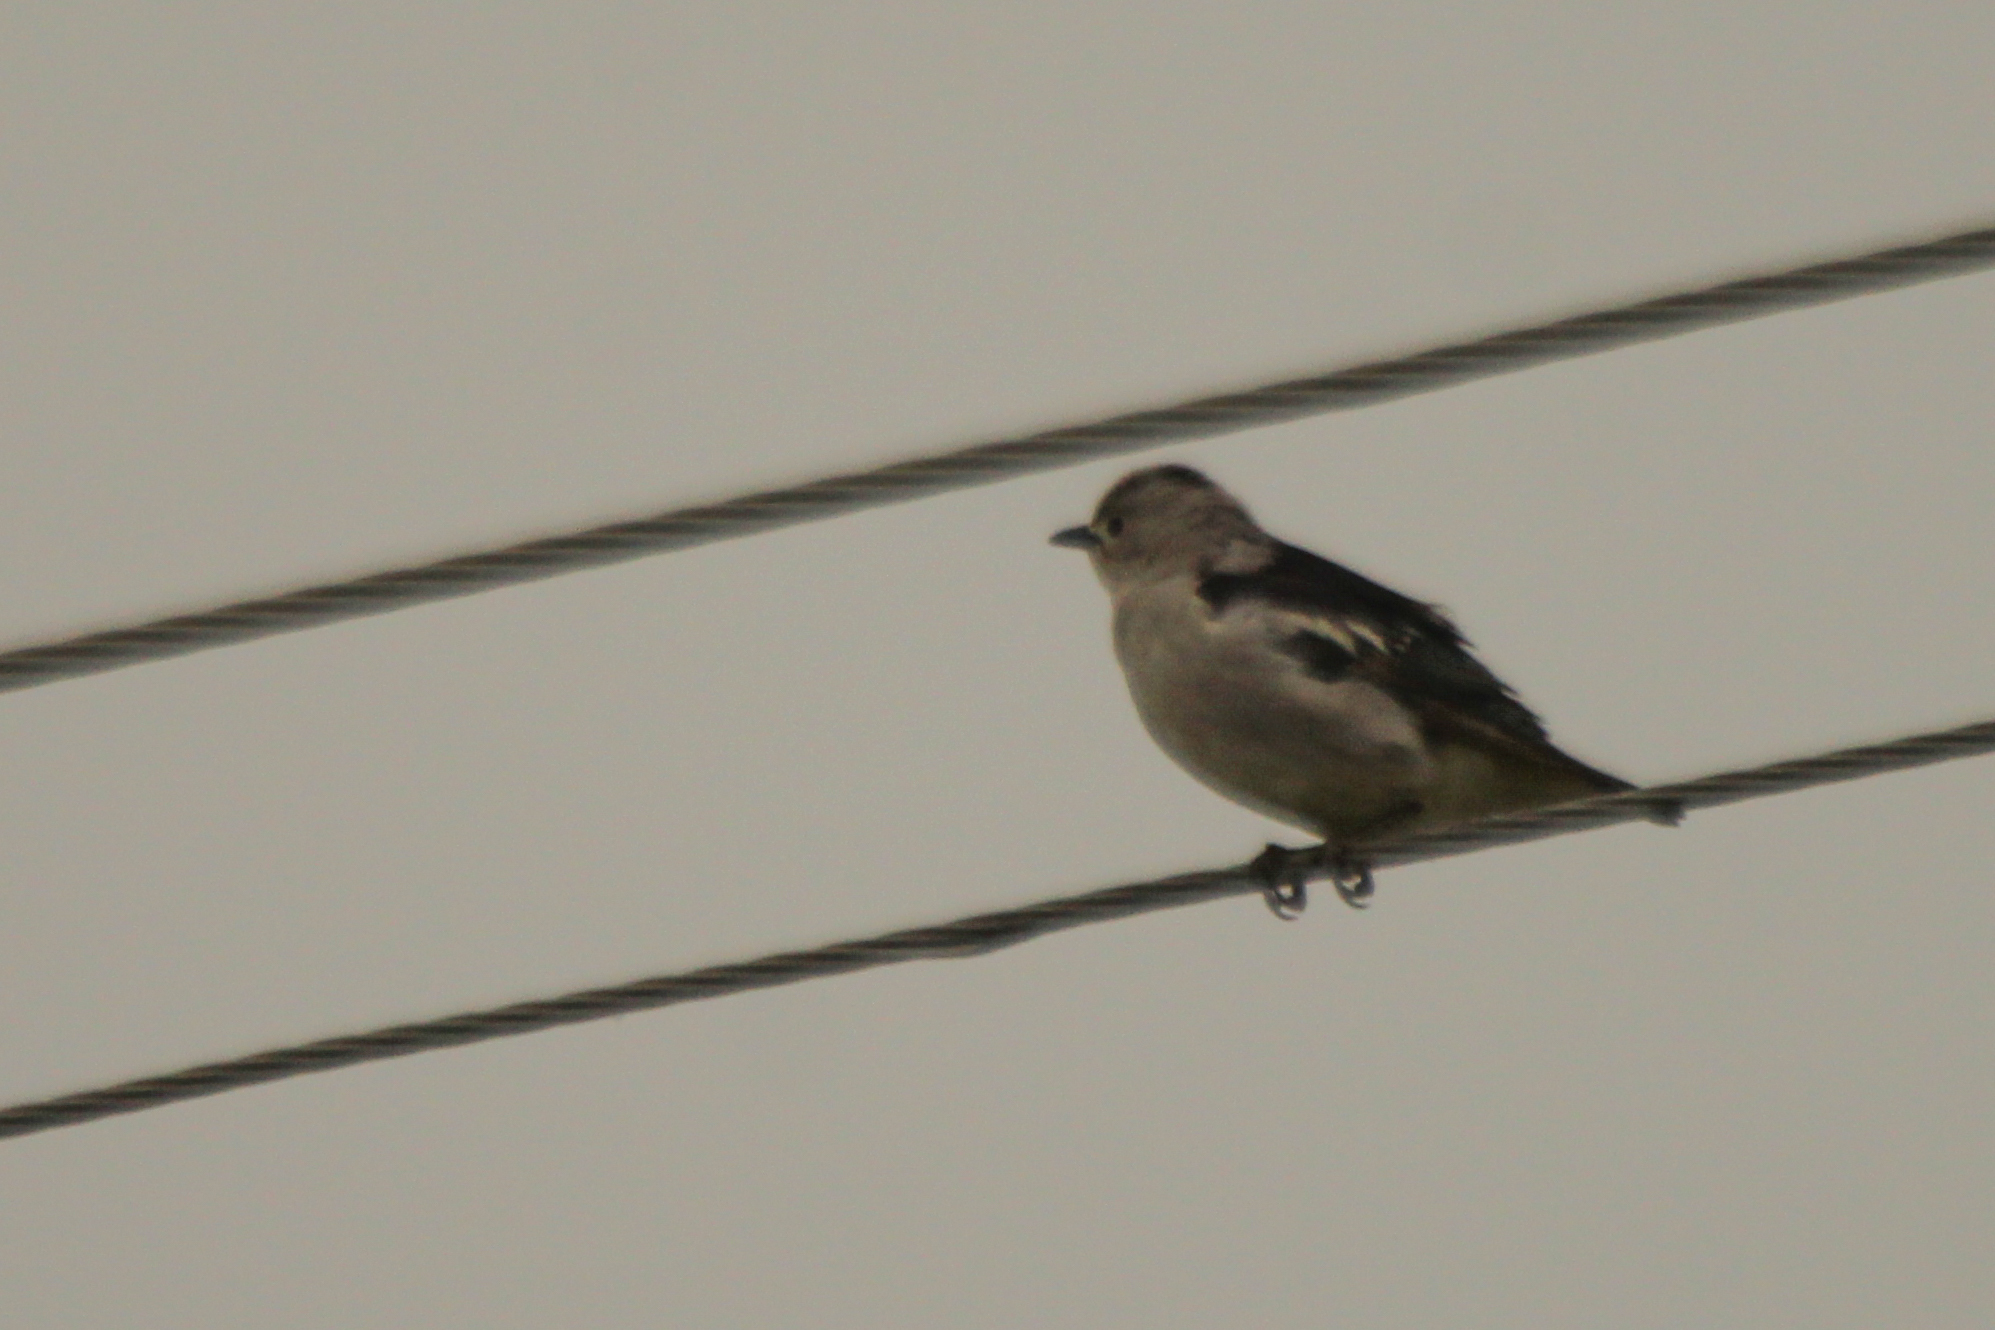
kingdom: Animalia
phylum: Chordata
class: Aves
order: Passeriformes
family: Sturnidae
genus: Agropsar
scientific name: Agropsar sturninus
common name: Daurian starling
